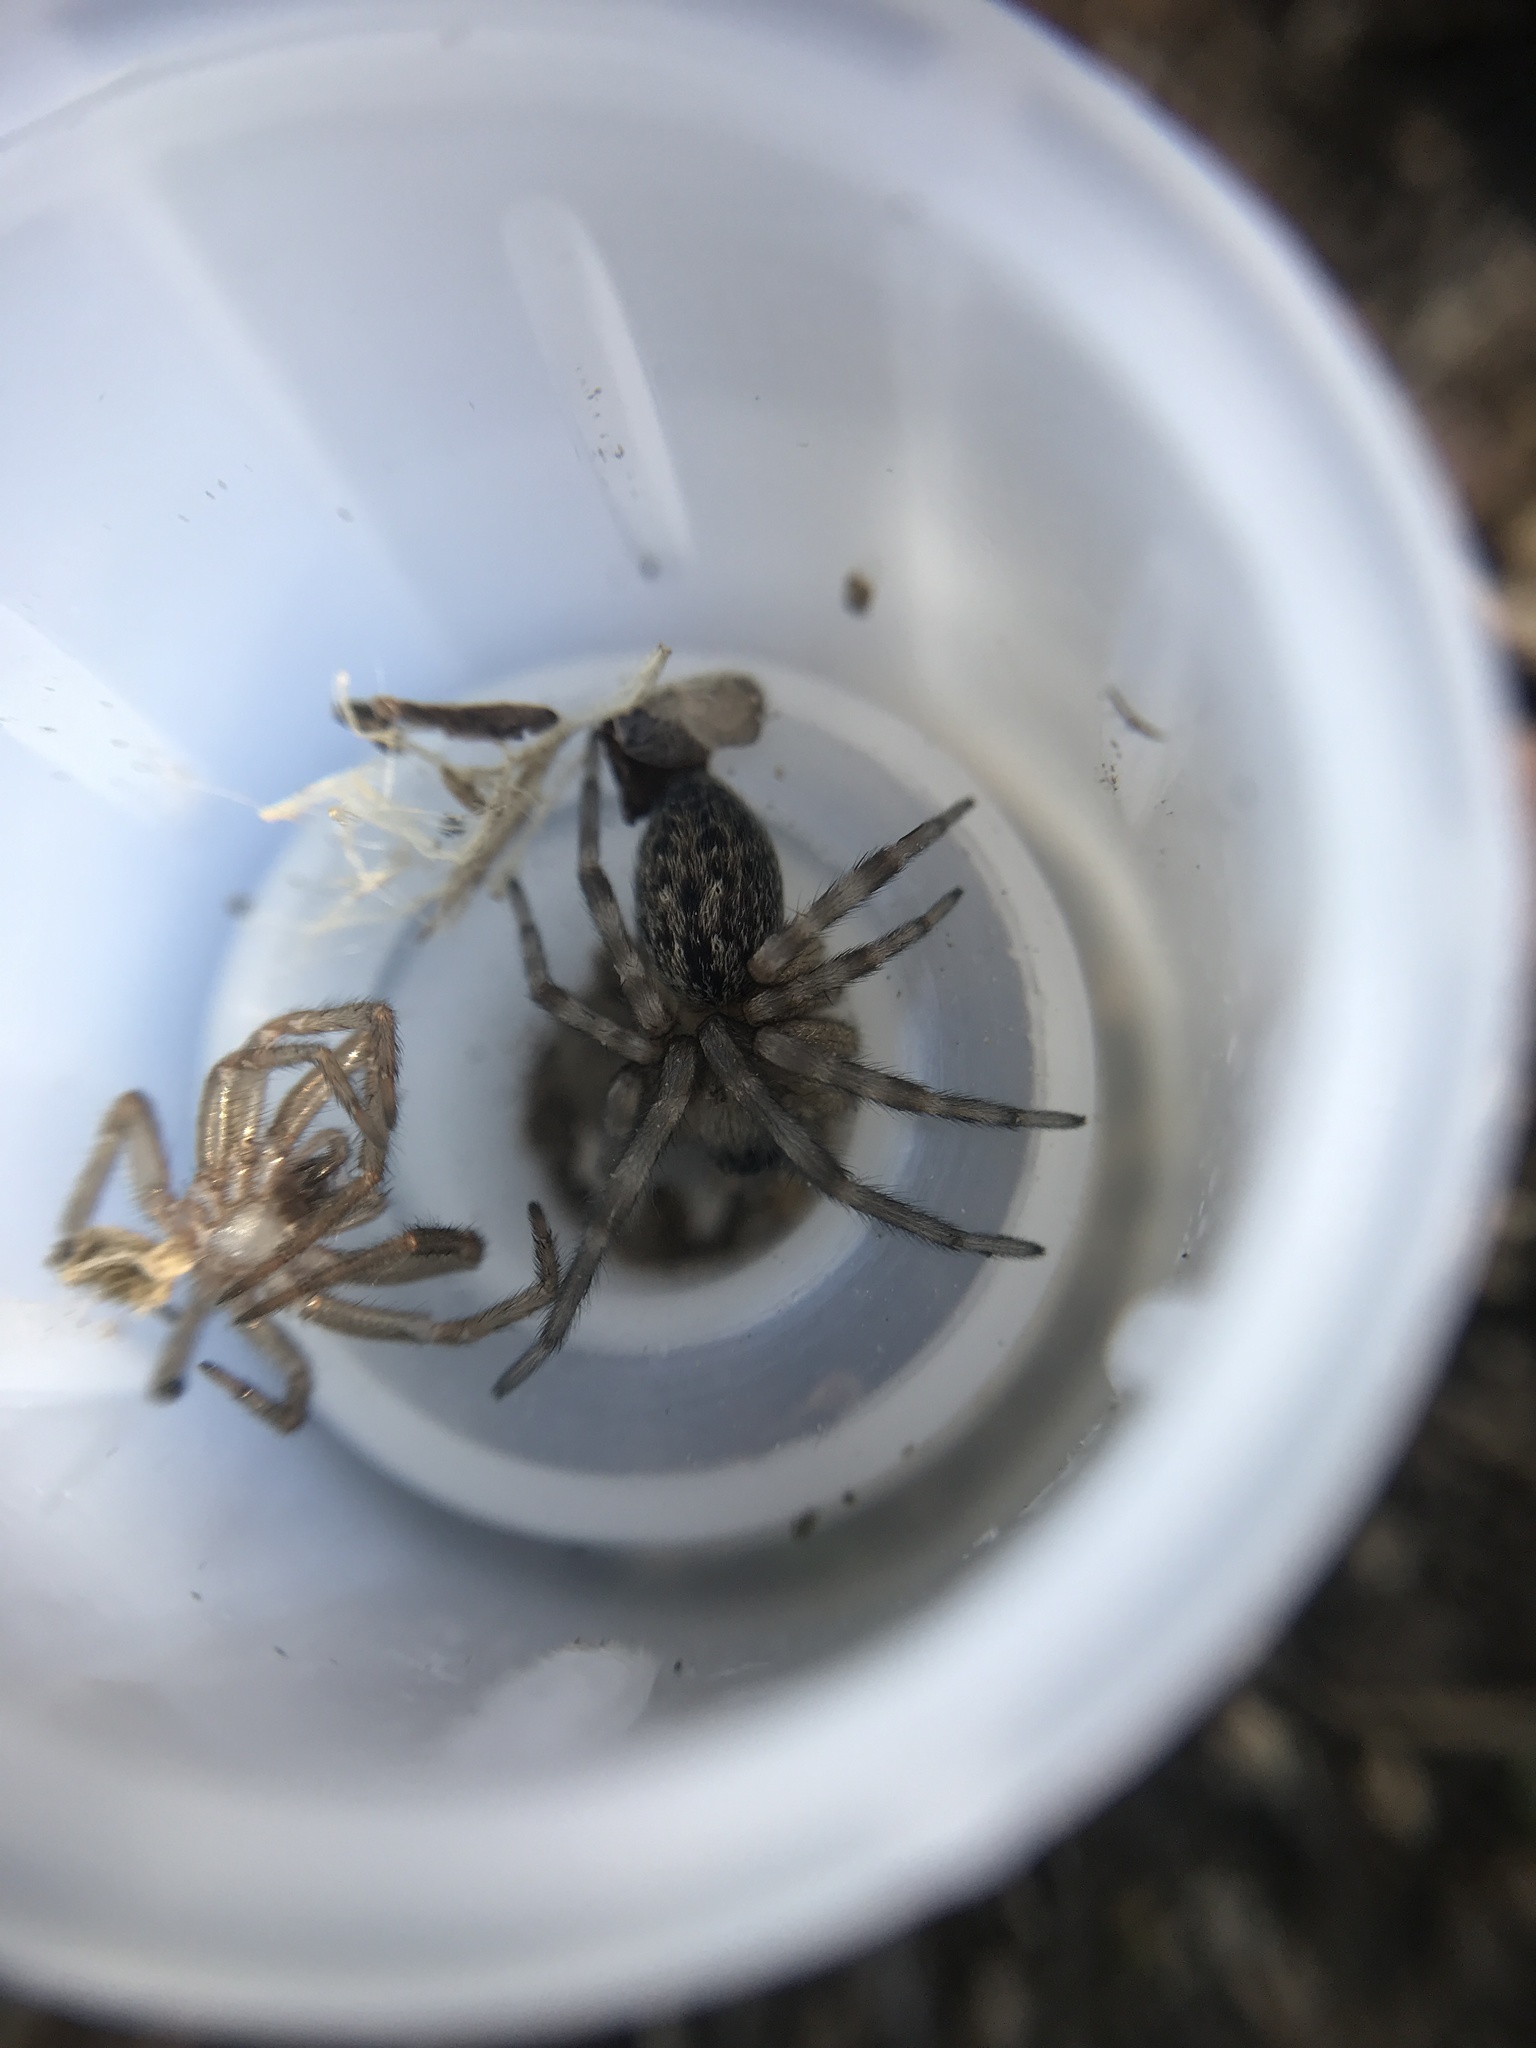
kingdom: Animalia
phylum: Arthropoda
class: Arachnida
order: Araneae
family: Desidae
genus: Badumna
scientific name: Badumna longinqua
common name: Gray house spider
